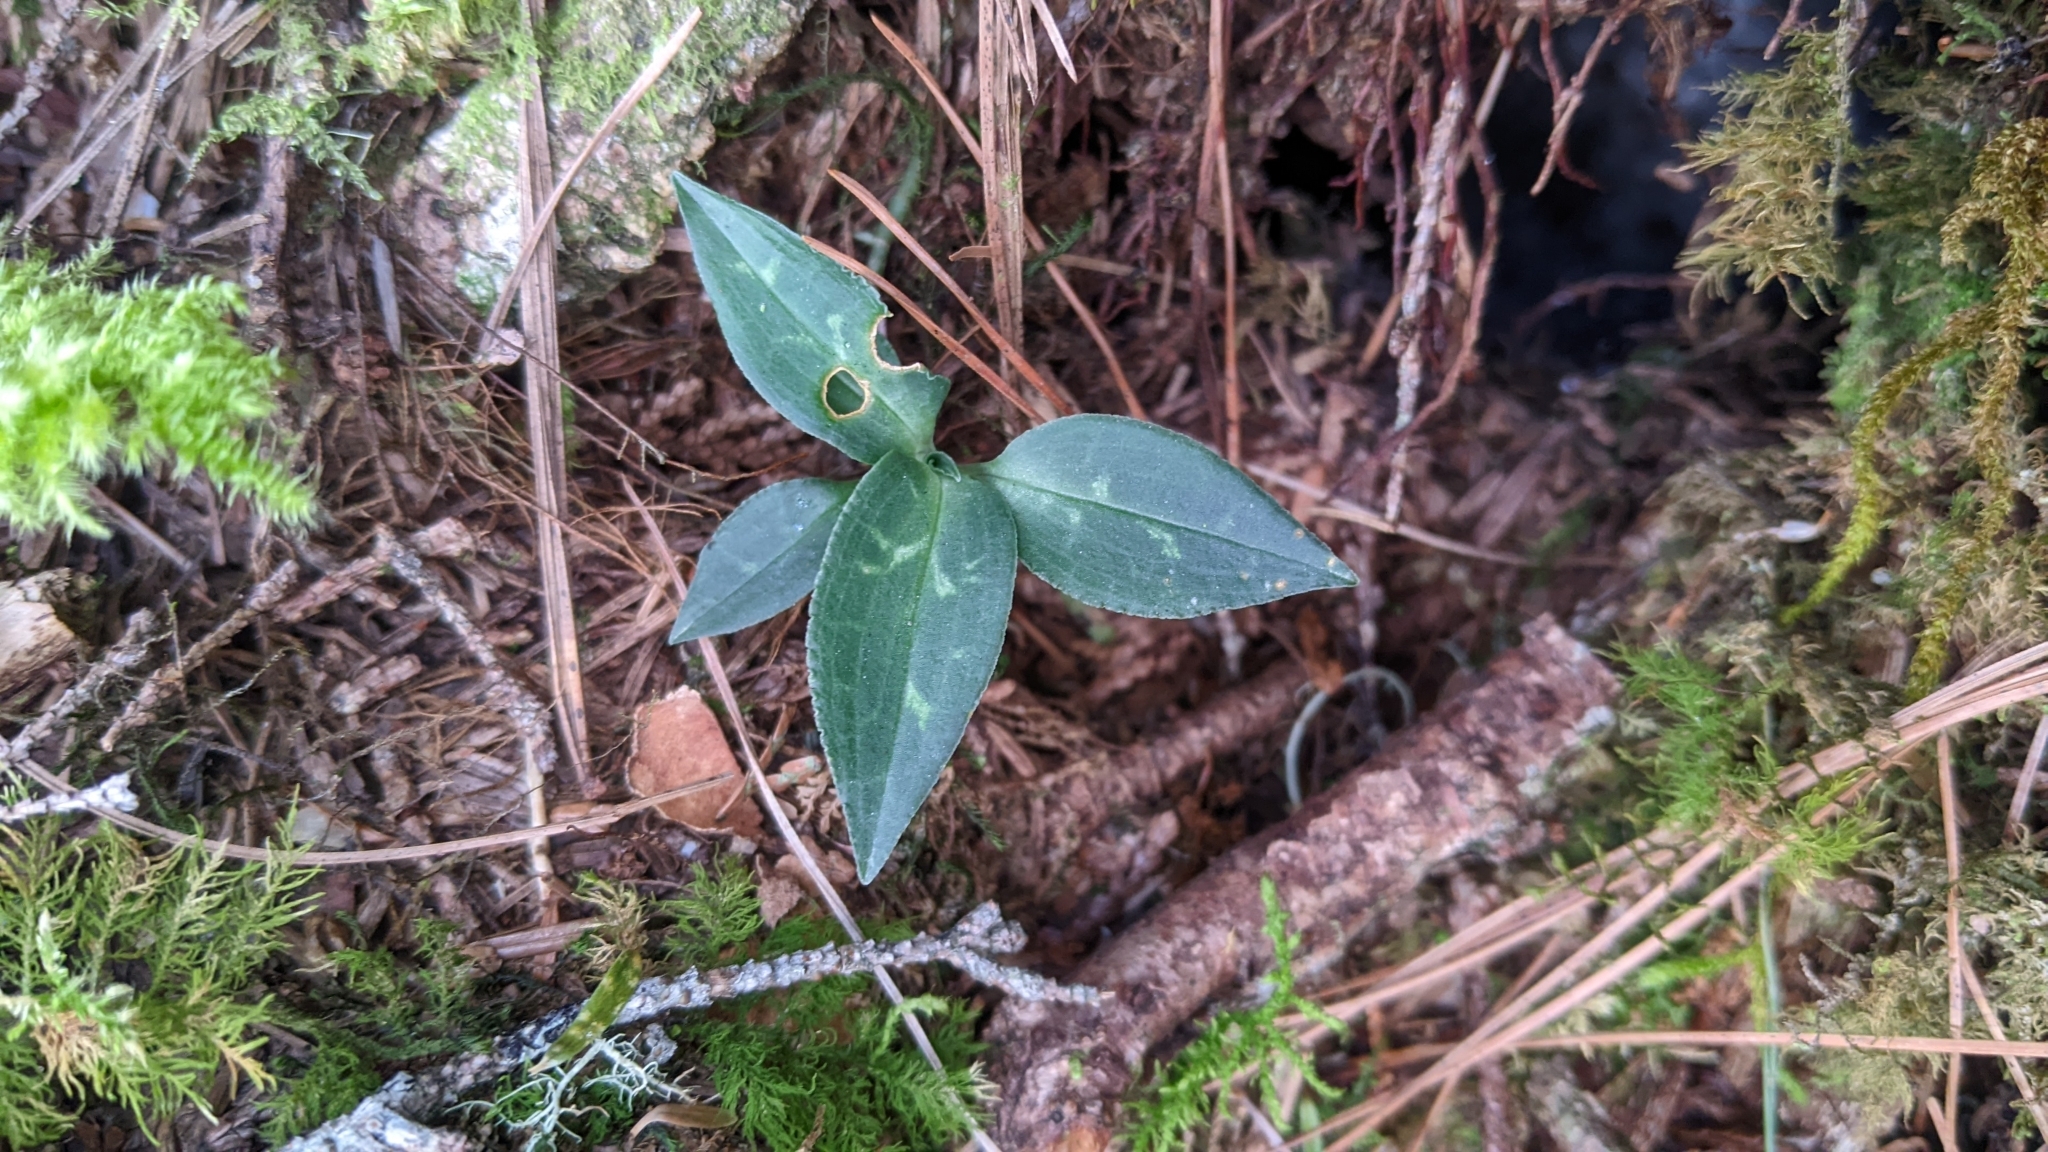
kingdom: Plantae
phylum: Tracheophyta
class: Liliopsida
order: Asparagales
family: Orchidaceae
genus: Goodyera
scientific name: Goodyera maculata
